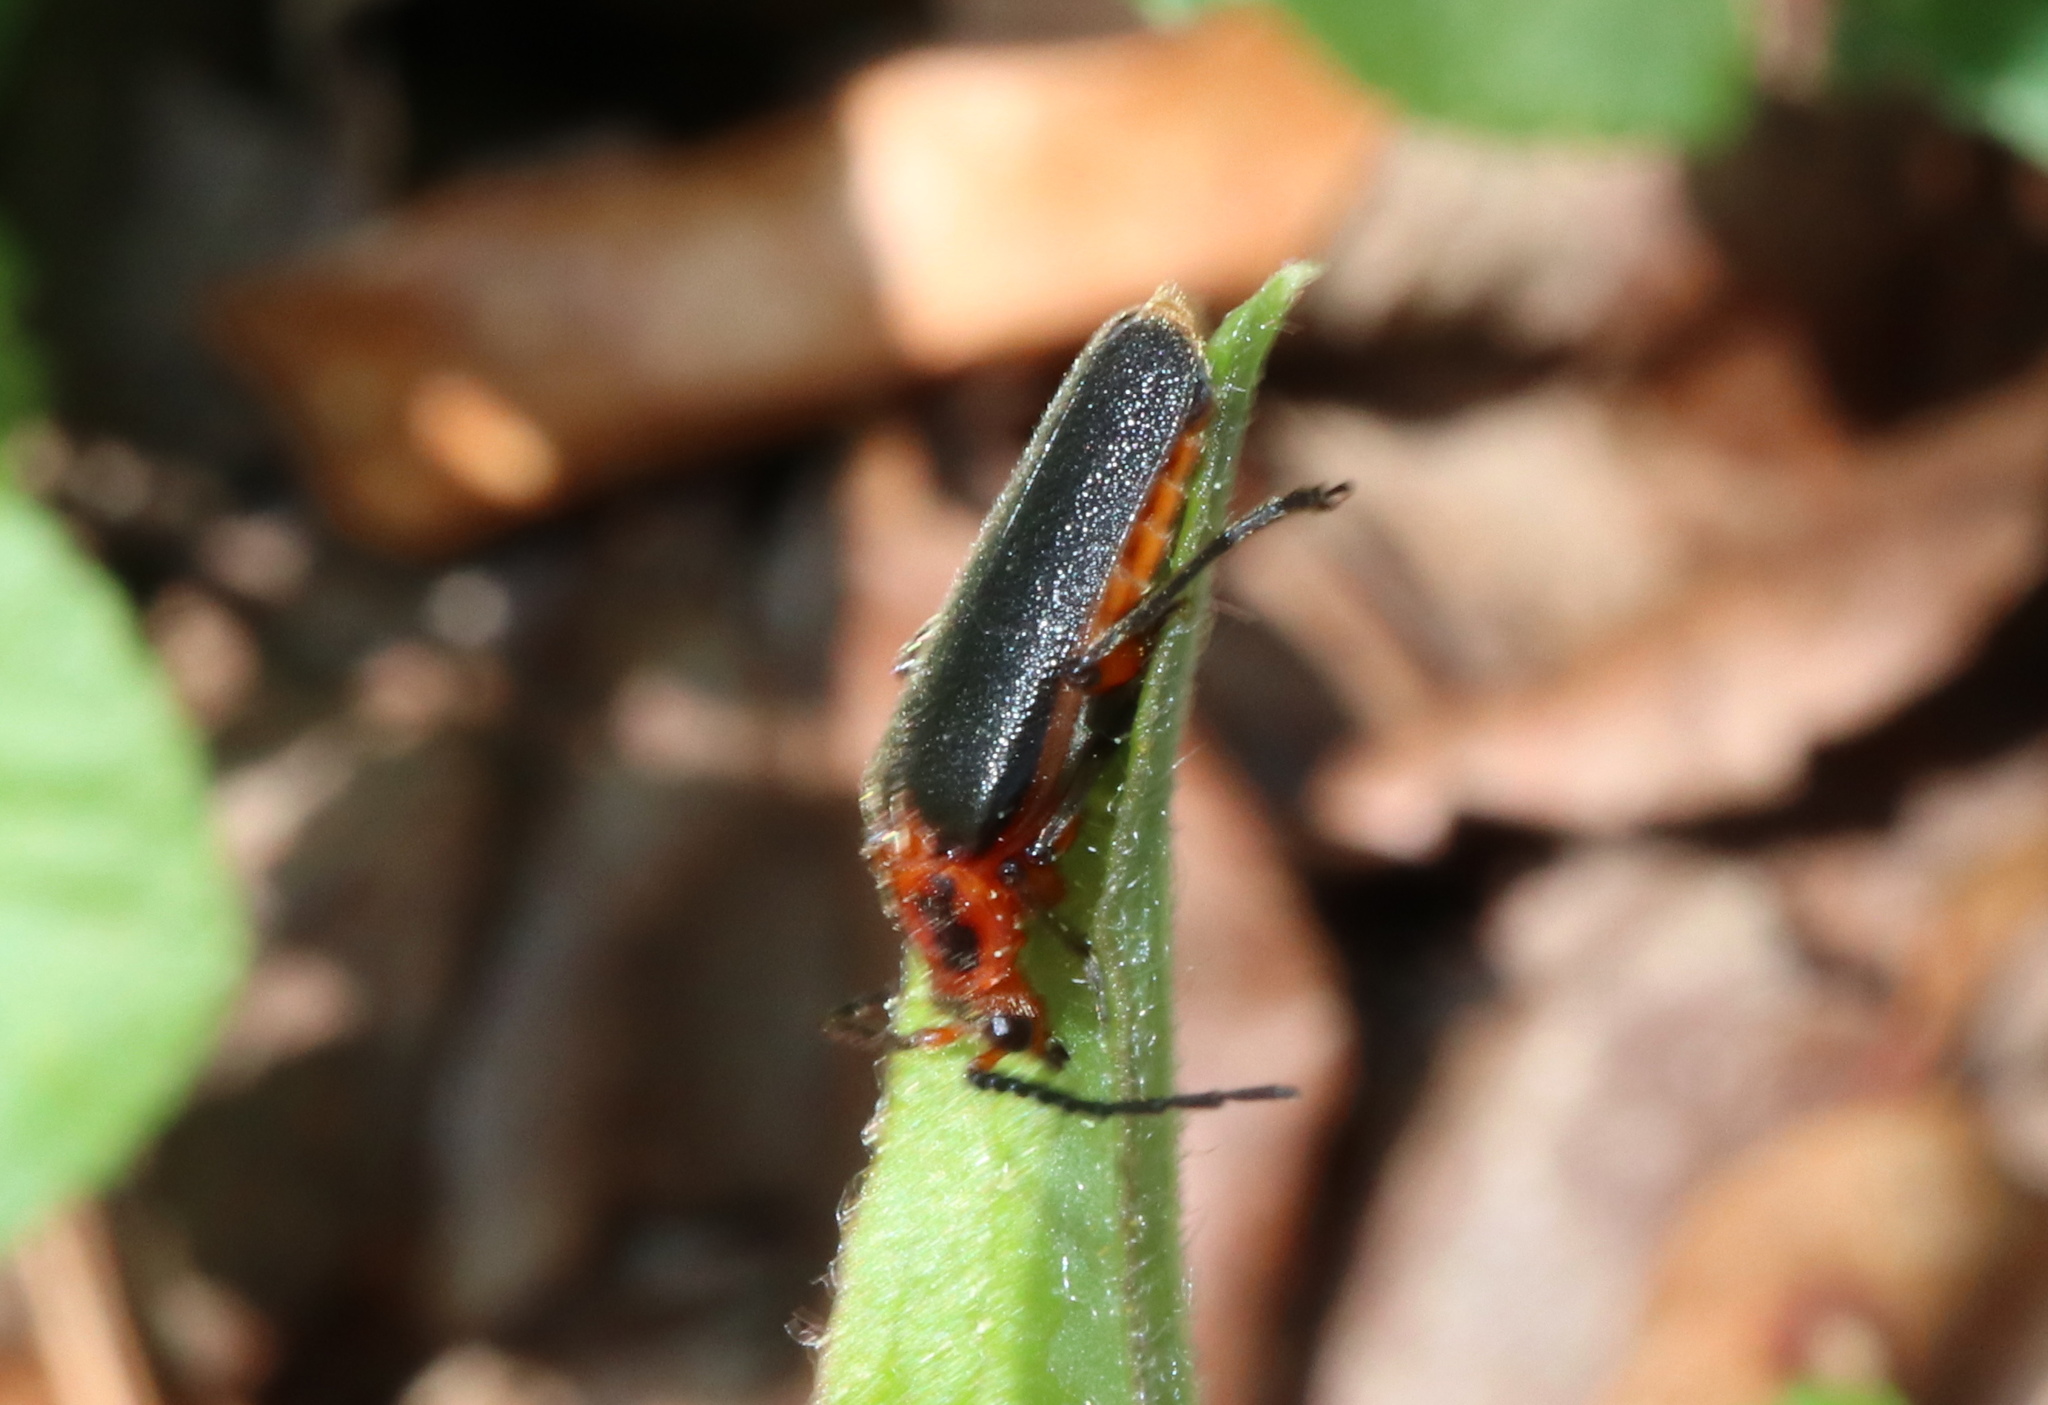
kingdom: Animalia
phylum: Arthropoda
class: Insecta
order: Coleoptera
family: Cantharidae
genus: Atalantycha
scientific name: Atalantycha bilineata
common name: Two-lined leatherwing
